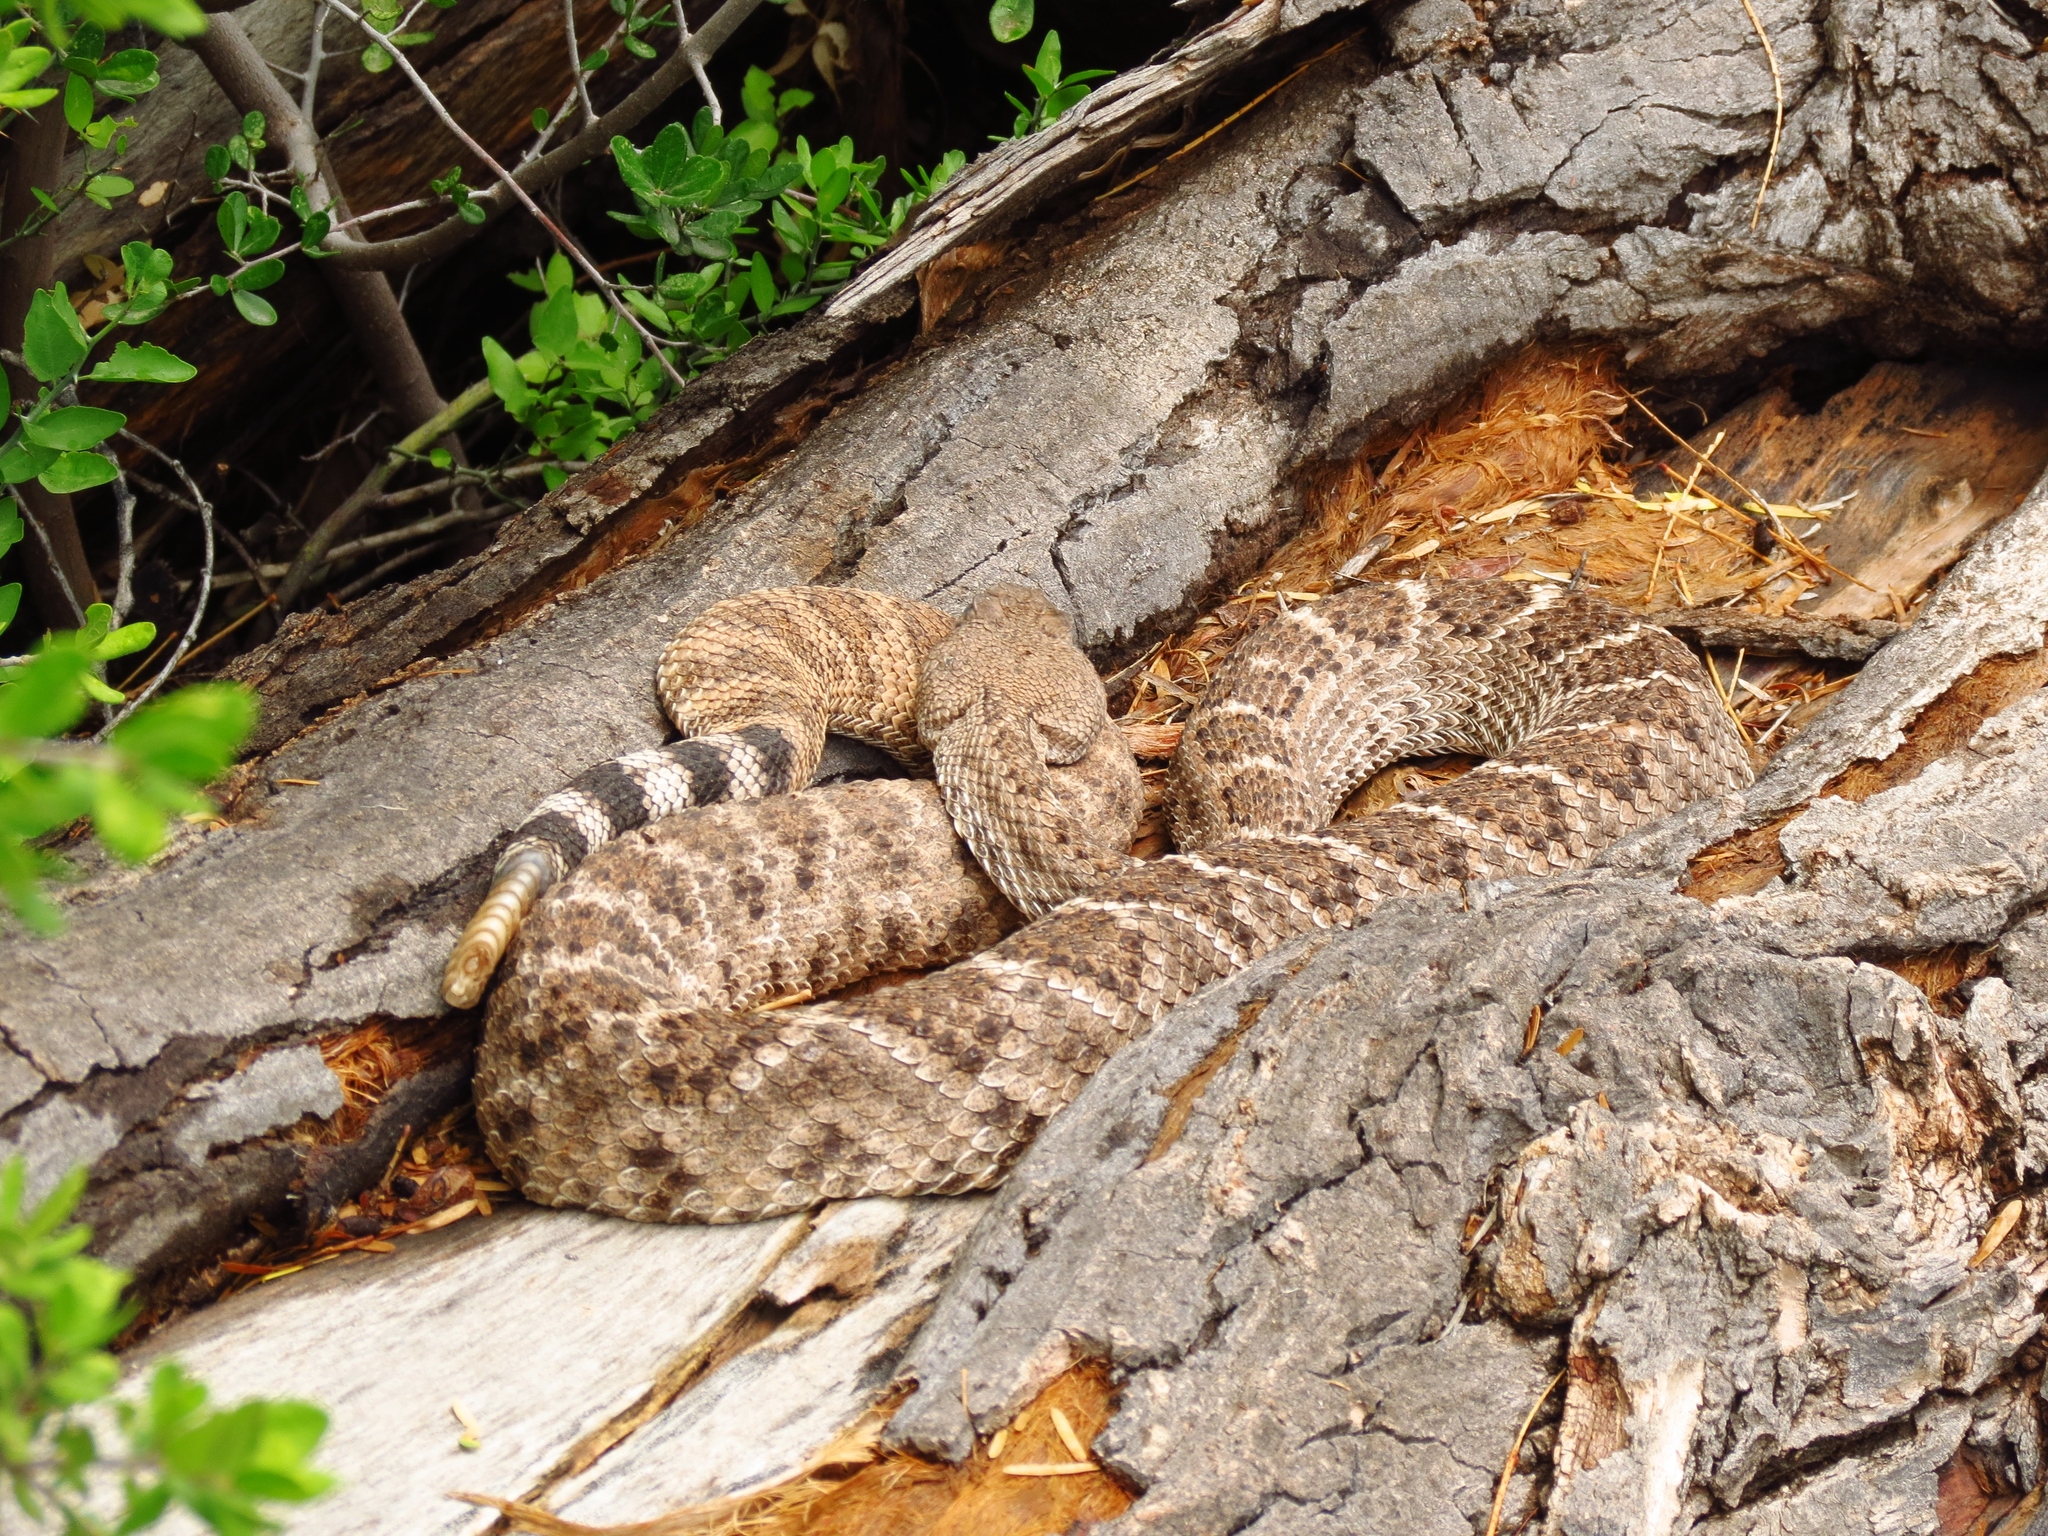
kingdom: Animalia
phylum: Chordata
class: Squamata
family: Viperidae
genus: Crotalus
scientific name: Crotalus atrox
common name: Western diamond-backed rattlesnake
